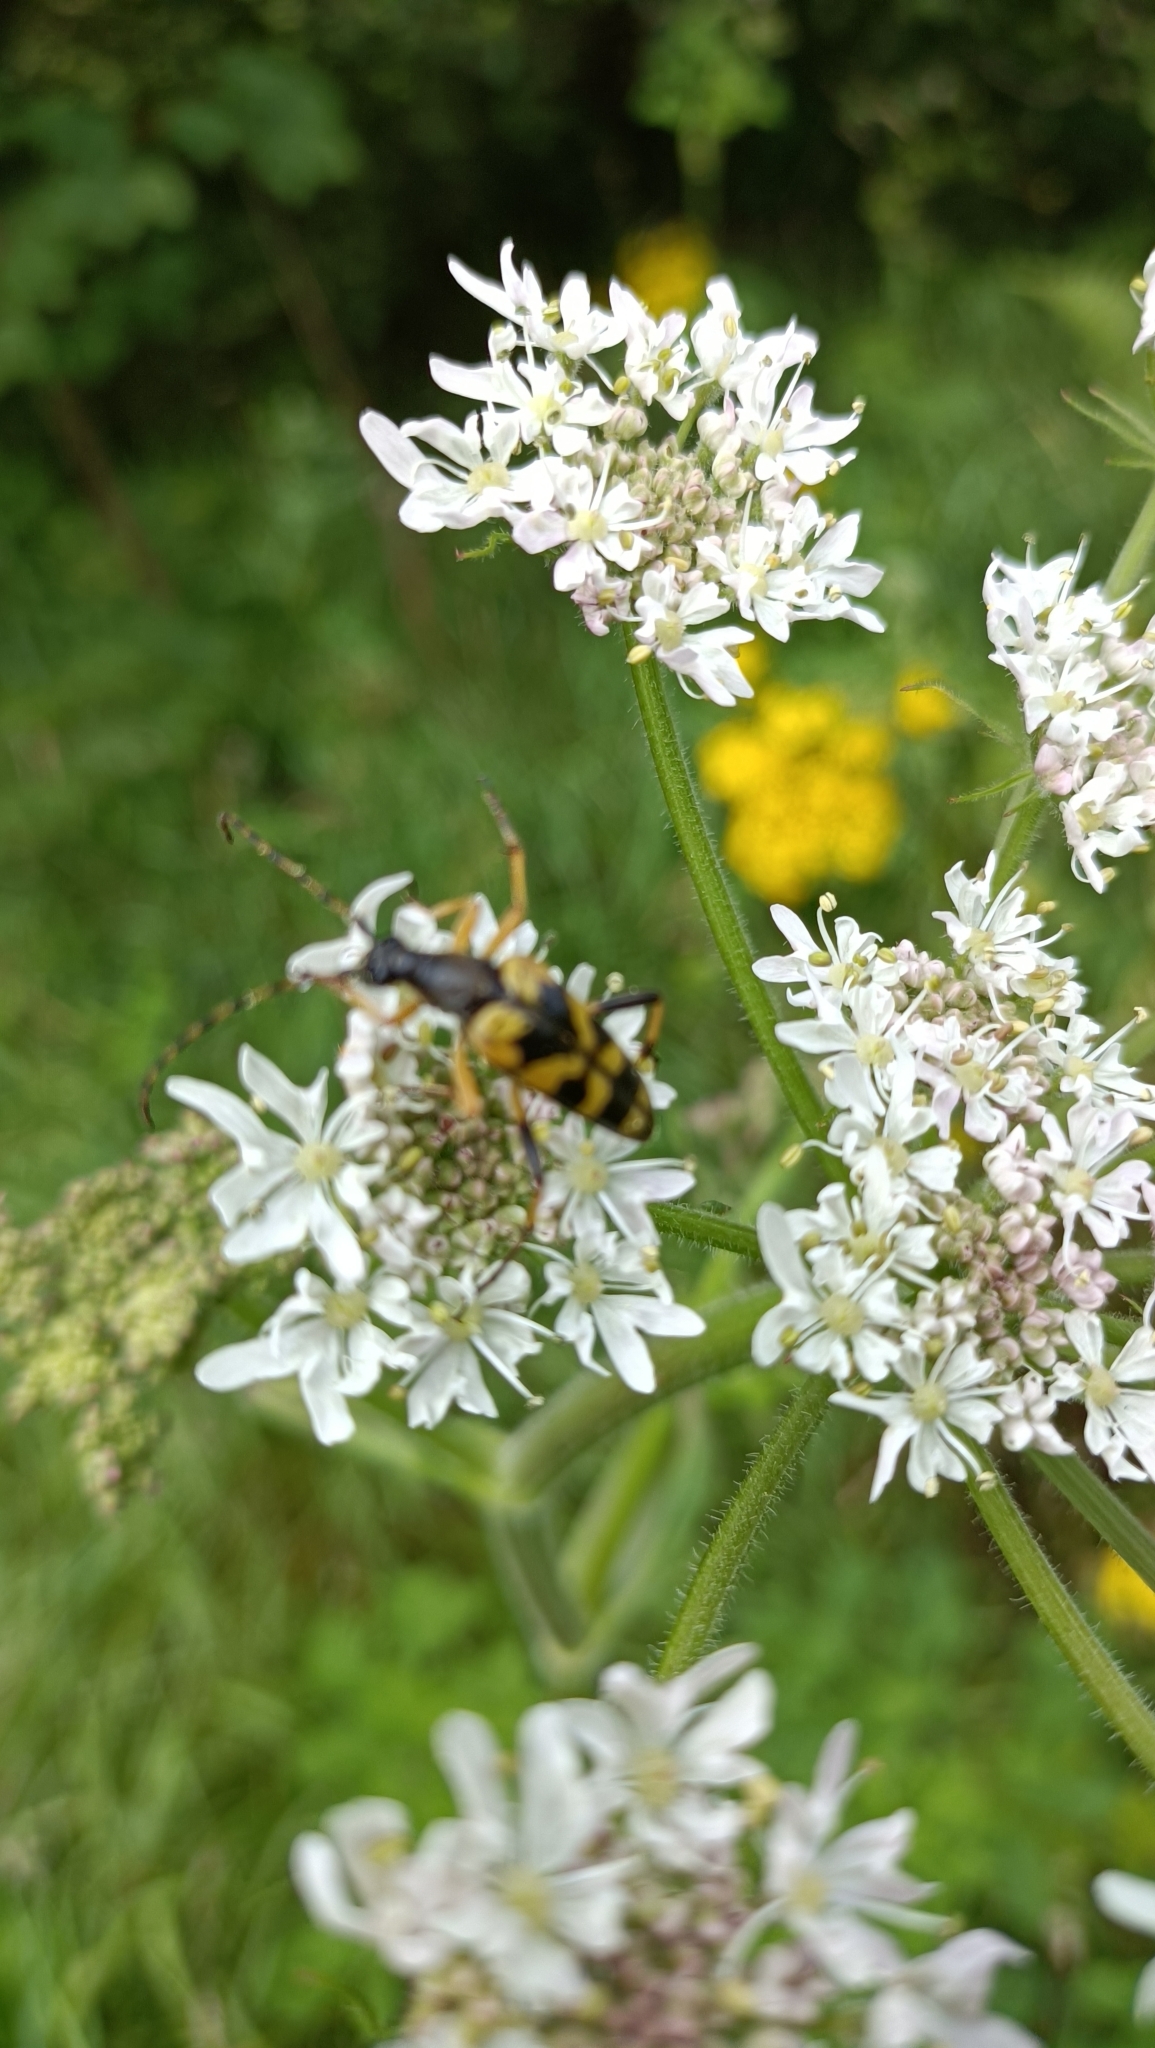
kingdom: Animalia
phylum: Arthropoda
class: Insecta
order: Coleoptera
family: Cerambycidae
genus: Rutpela
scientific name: Rutpela maculata
